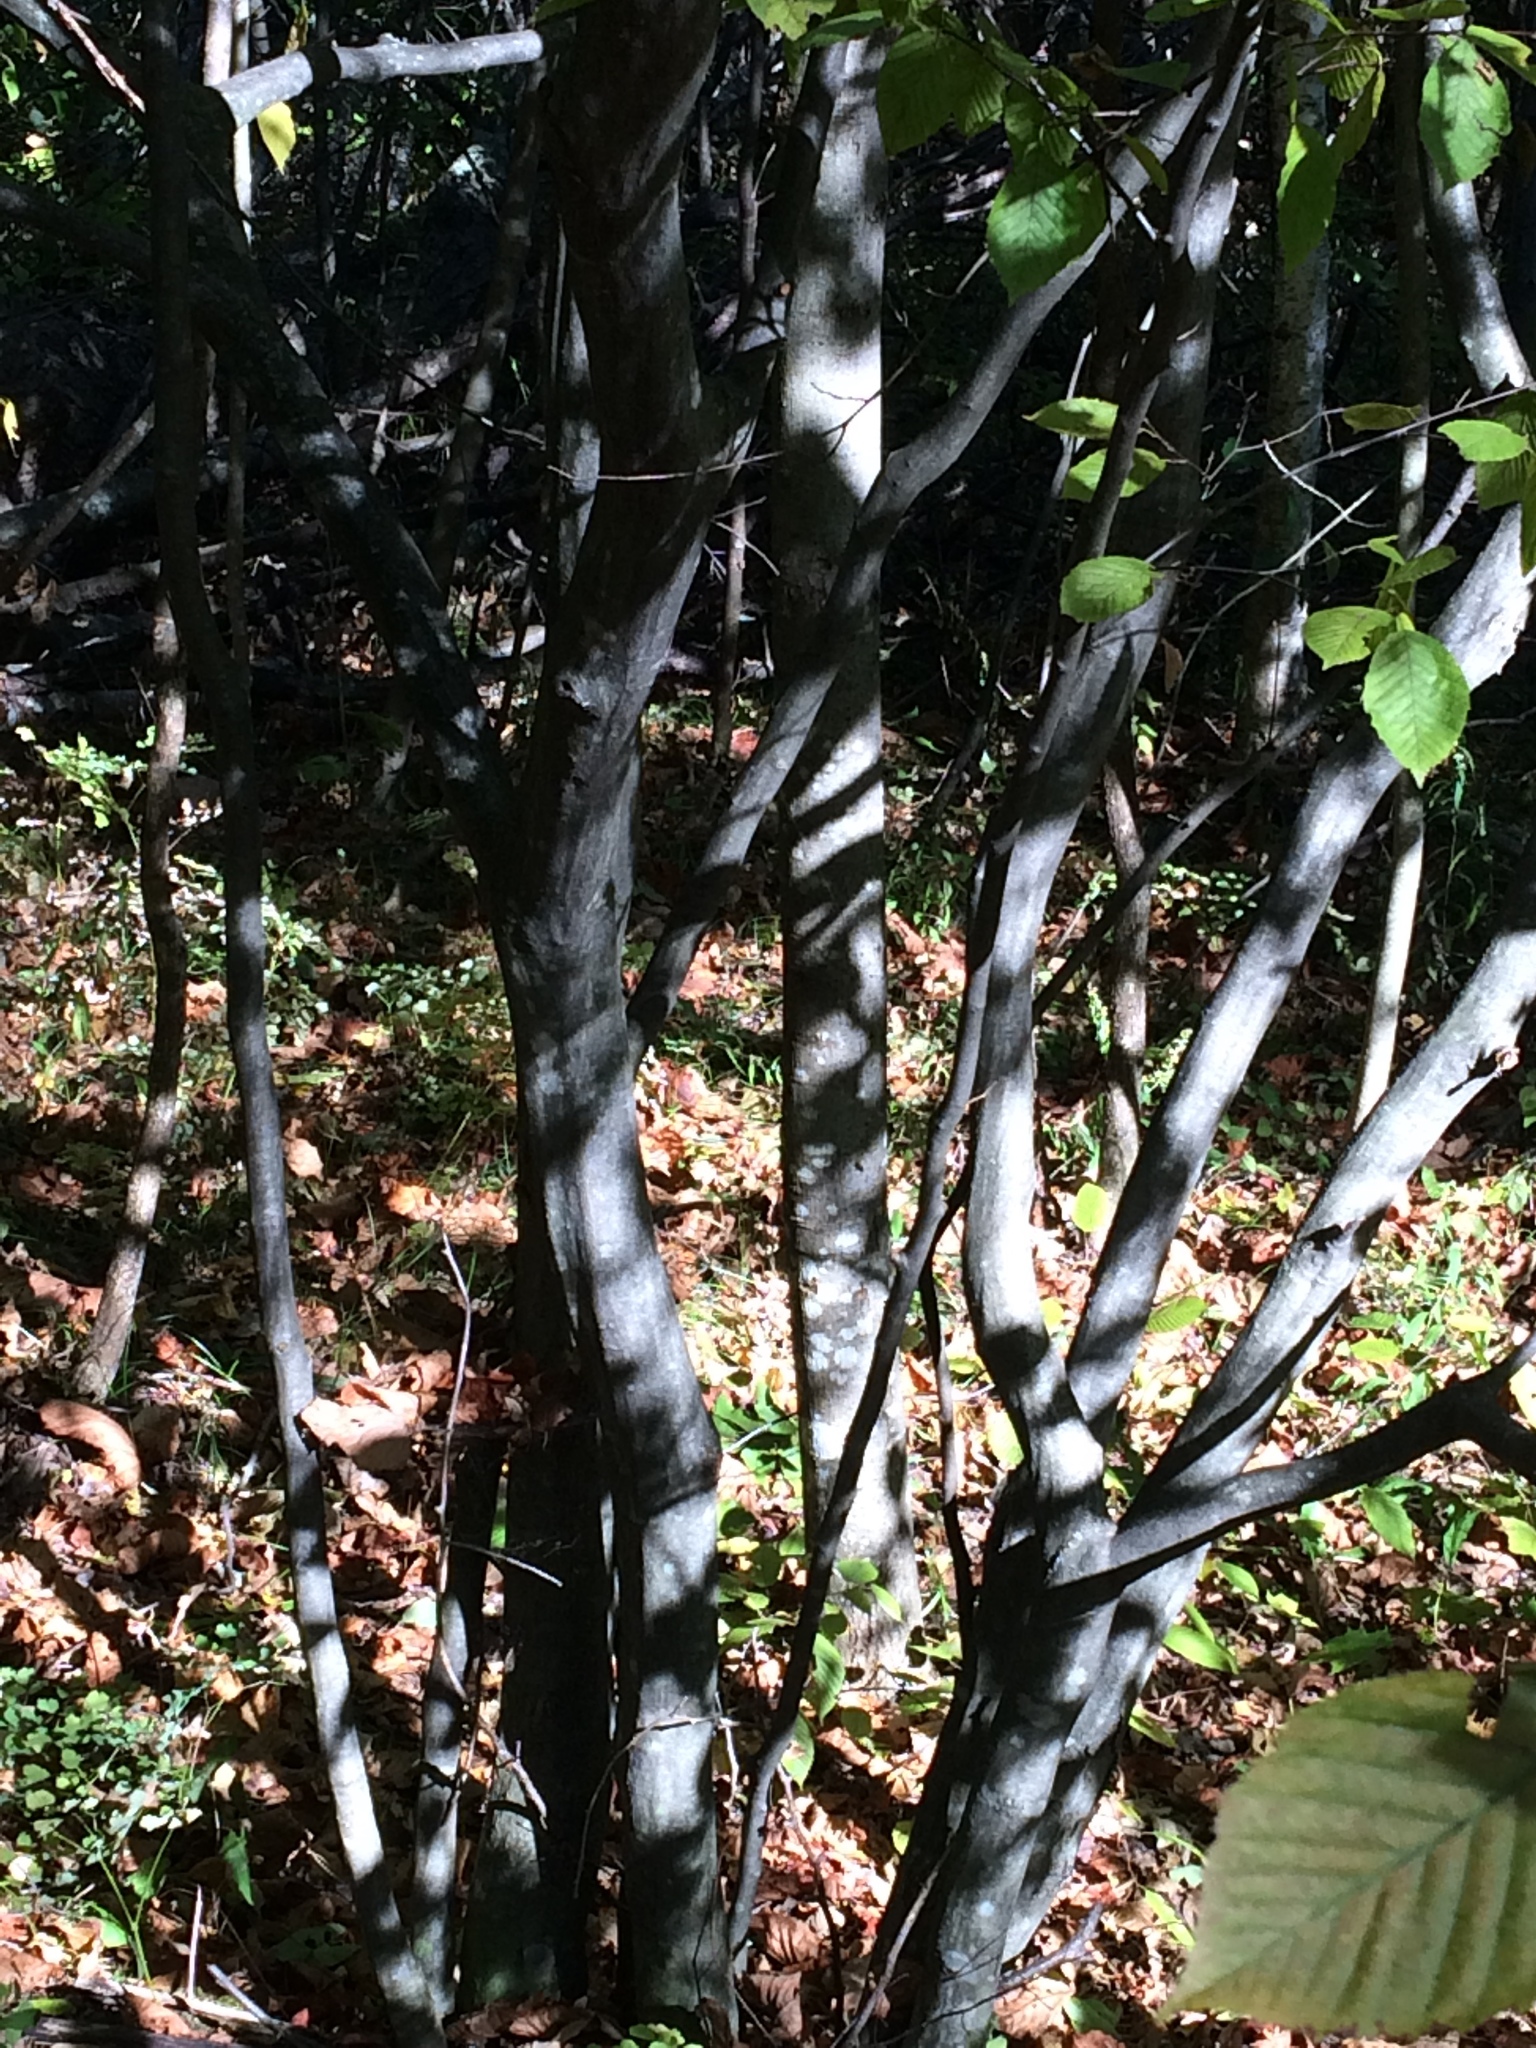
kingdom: Plantae
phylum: Tracheophyta
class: Magnoliopsida
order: Fagales
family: Betulaceae
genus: Carpinus
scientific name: Carpinus caroliniana
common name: American hornbeam
